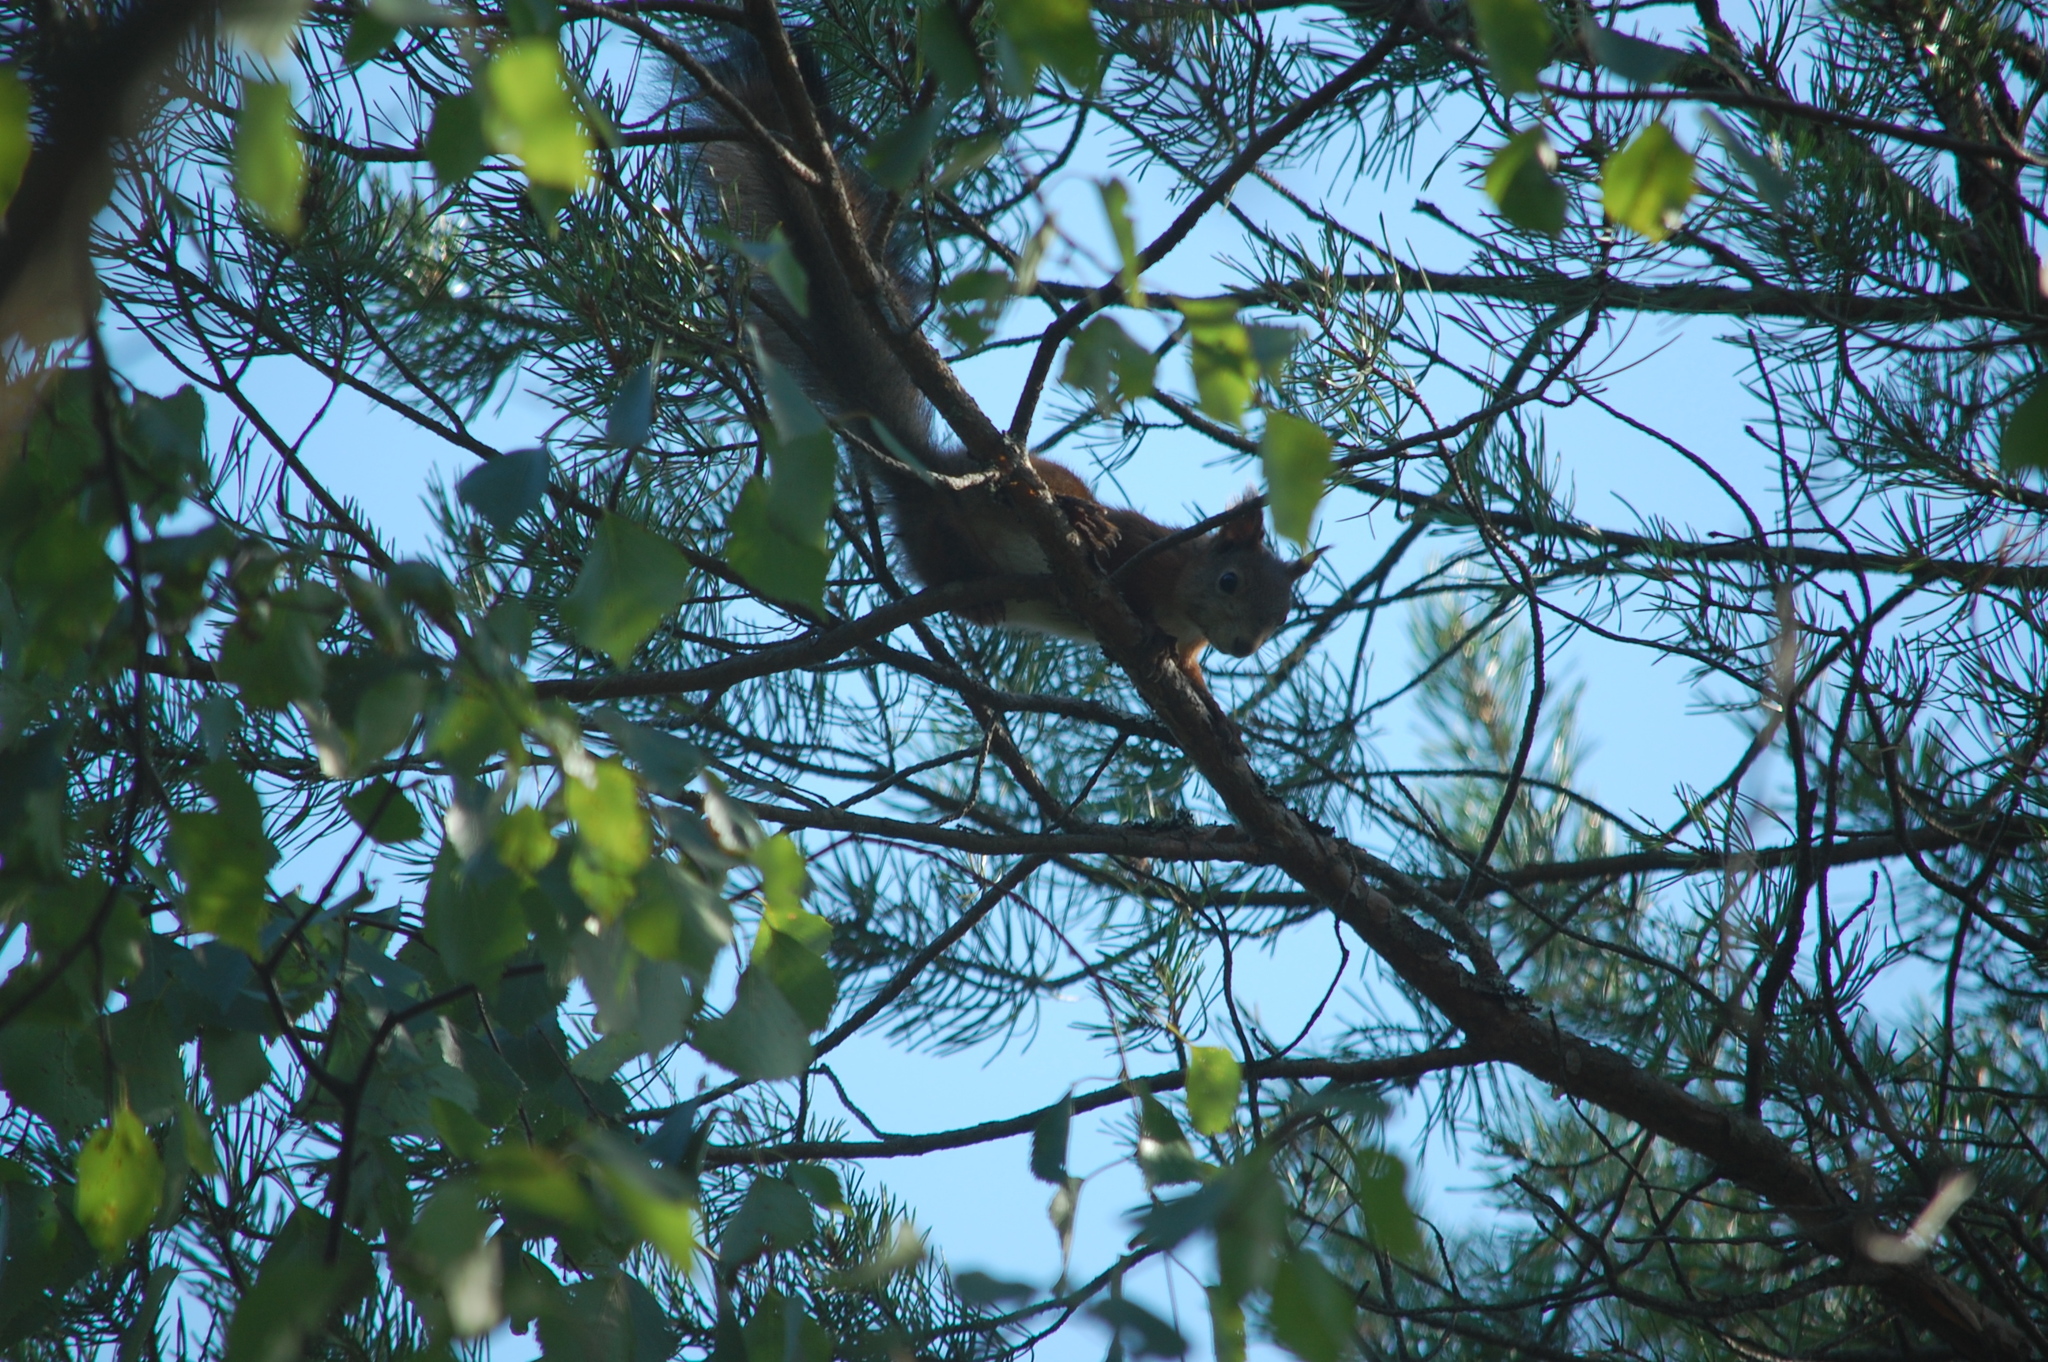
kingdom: Animalia
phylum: Chordata
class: Mammalia
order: Rodentia
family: Sciuridae
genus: Sciurus
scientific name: Sciurus vulgaris
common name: Eurasian red squirrel
